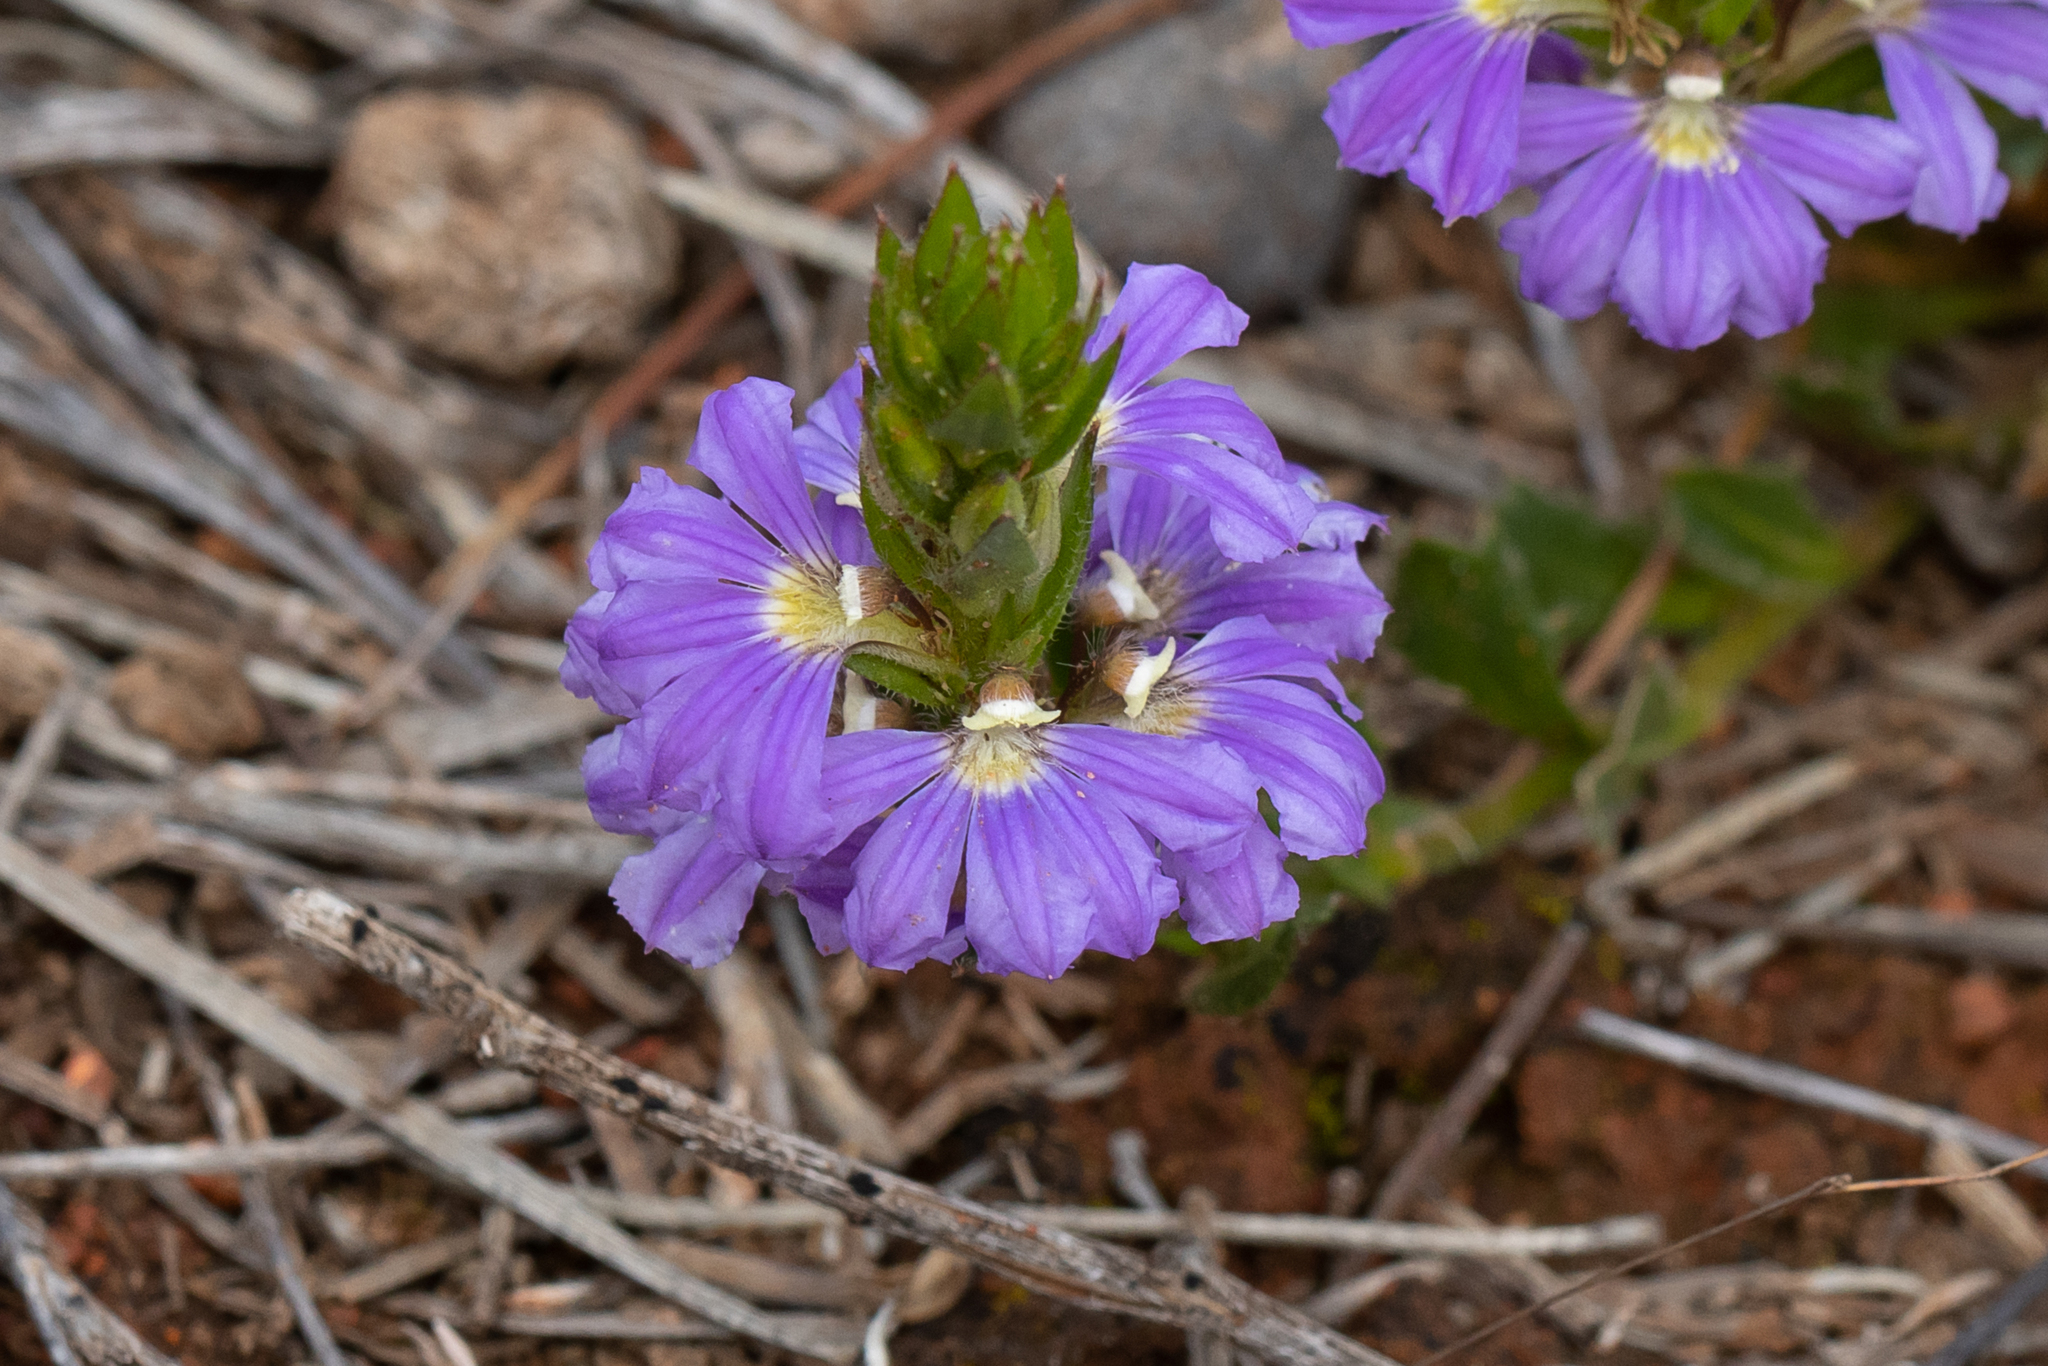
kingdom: Plantae
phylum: Tracheophyta
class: Magnoliopsida
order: Asterales
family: Goodeniaceae
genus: Scaevola
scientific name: Scaevola aemula
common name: Common fanflower
